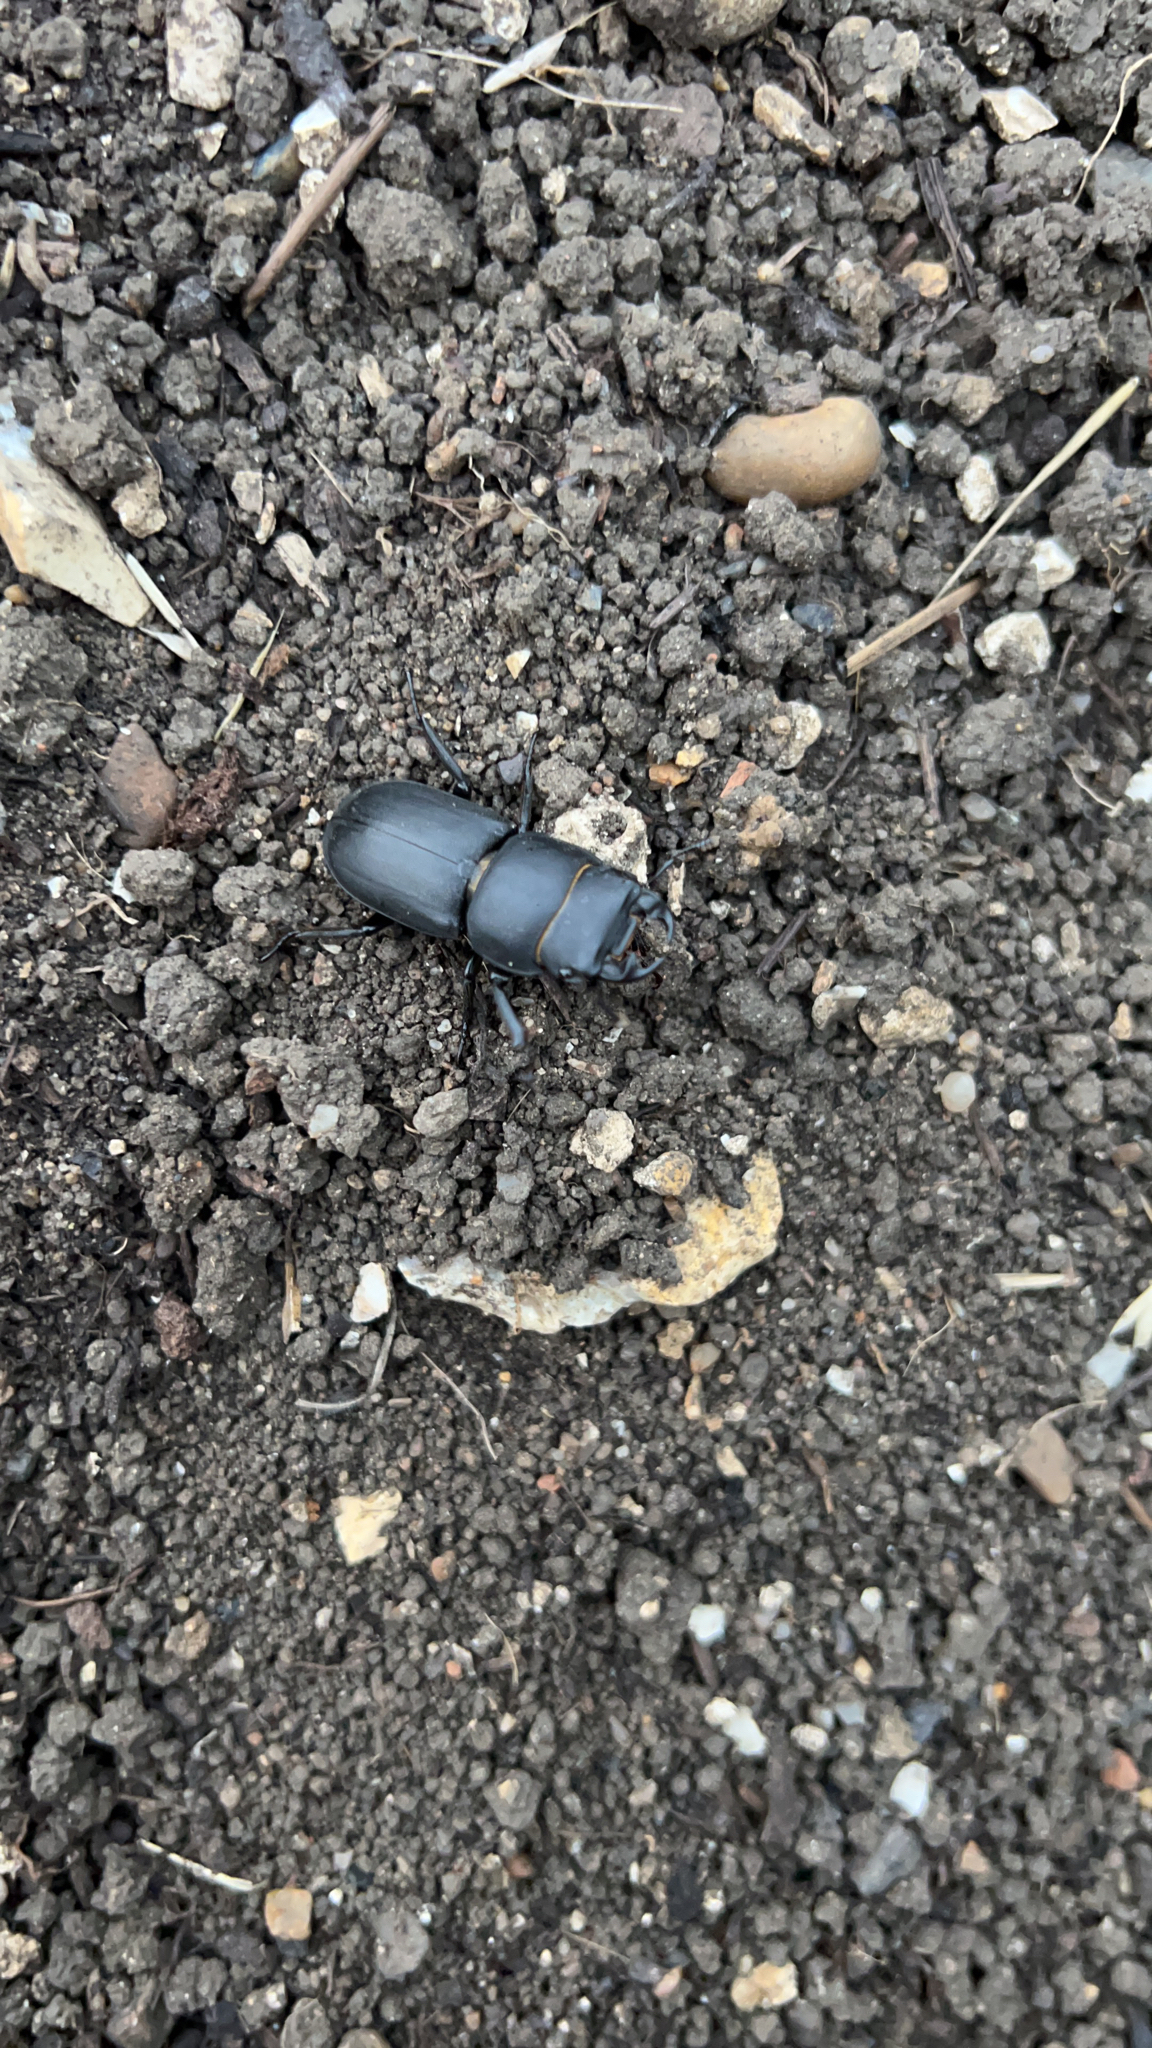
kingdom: Animalia
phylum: Arthropoda
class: Insecta
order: Coleoptera
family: Lucanidae
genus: Dorcus
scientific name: Dorcus parallelipipedus
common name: Lesser stag beetle
